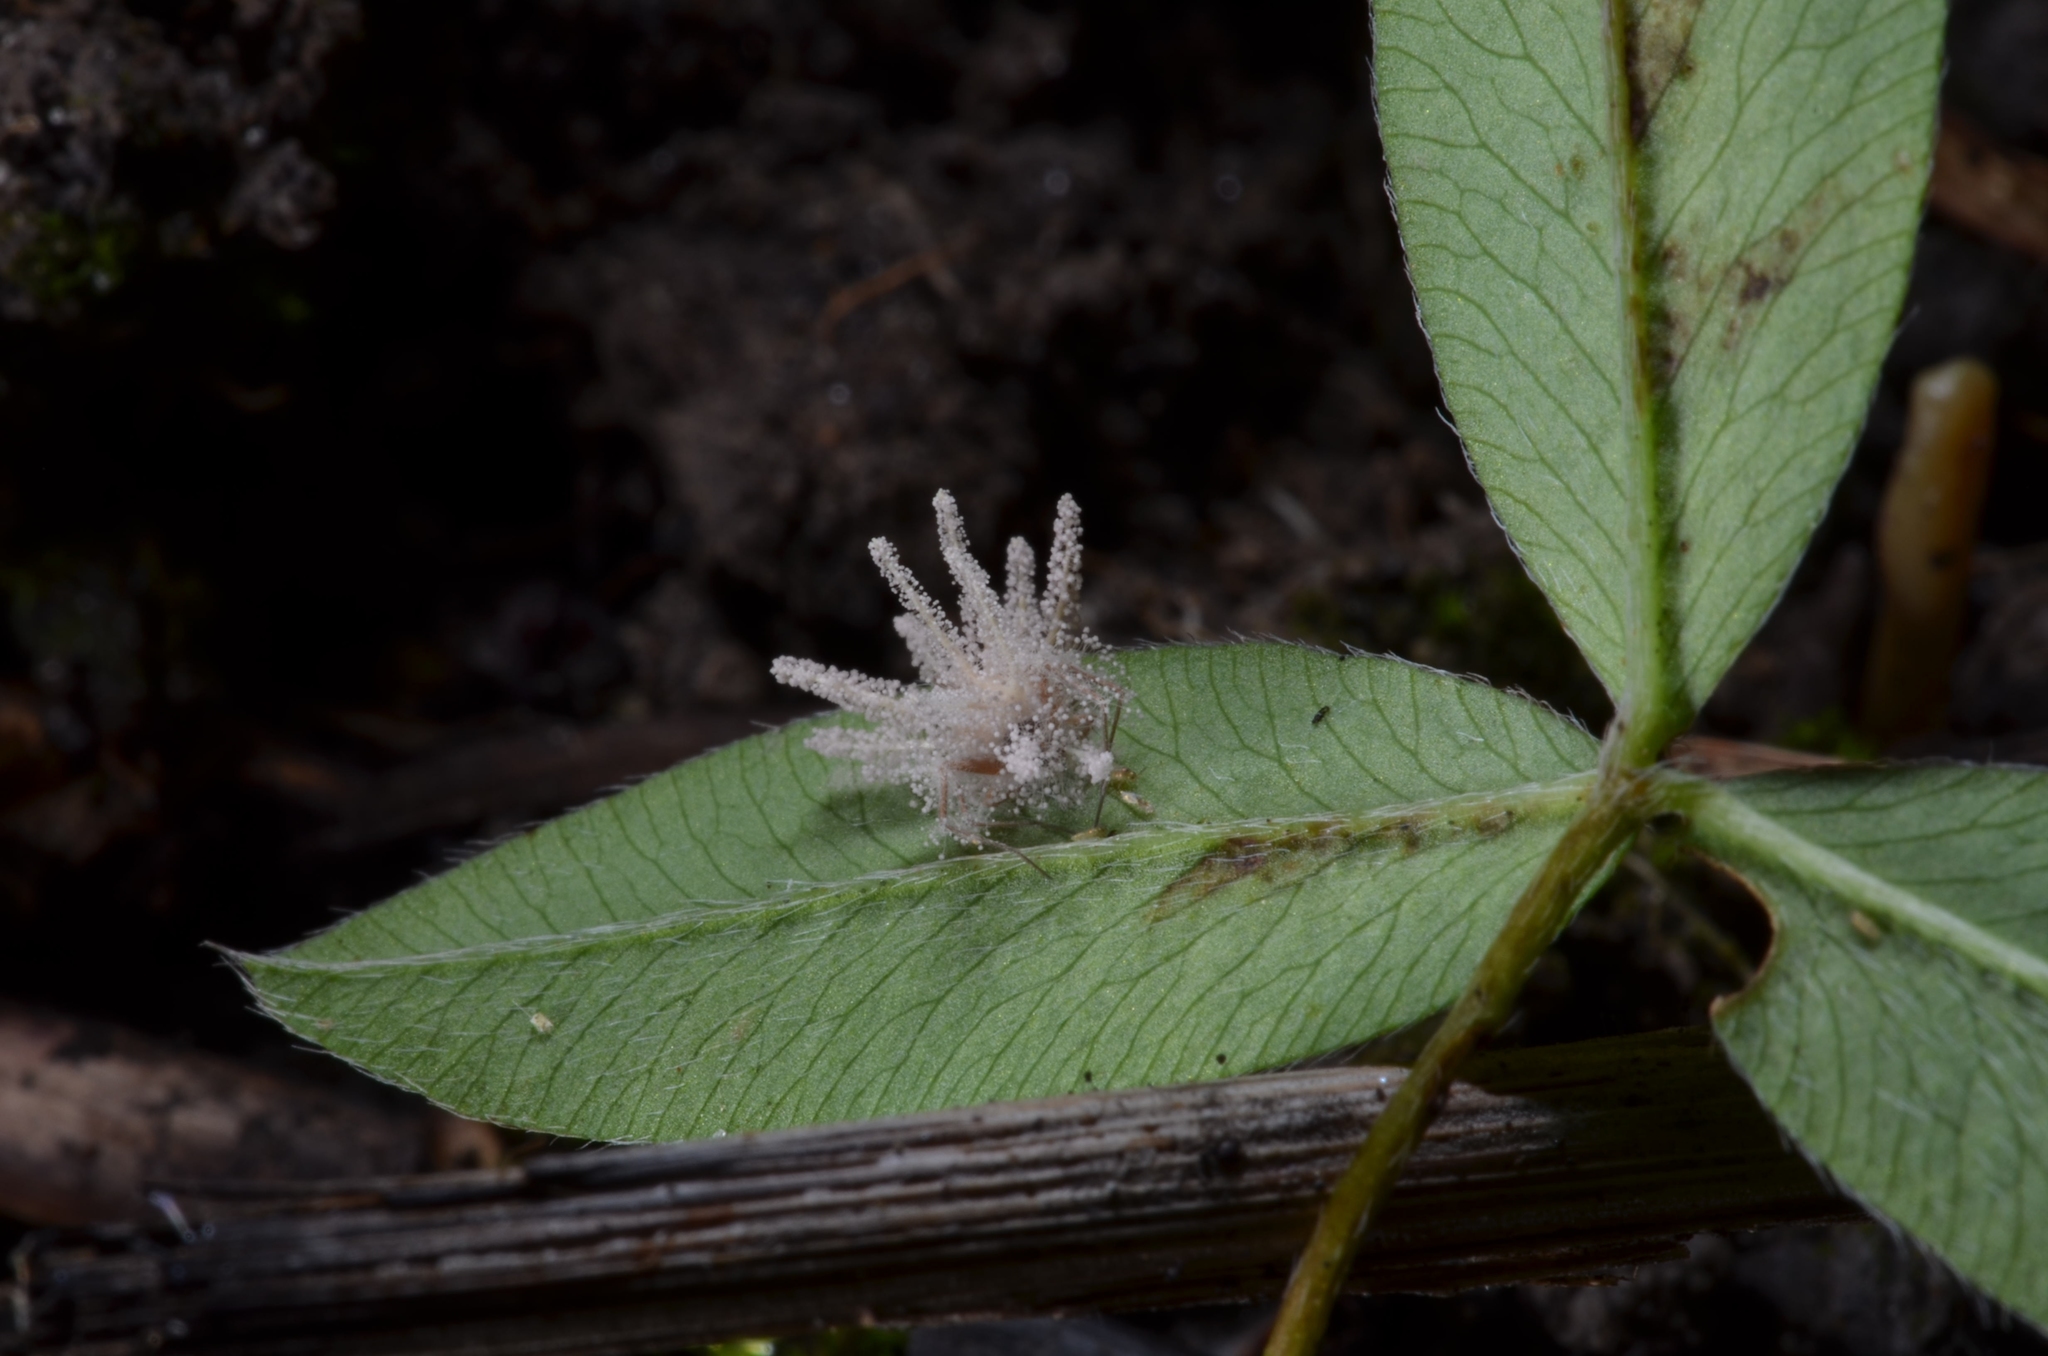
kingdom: Fungi
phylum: Ascomycota
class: Sordariomycetes
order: Hypocreales
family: Cordycipitaceae
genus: Gibellula
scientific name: Gibellula arachnophila
